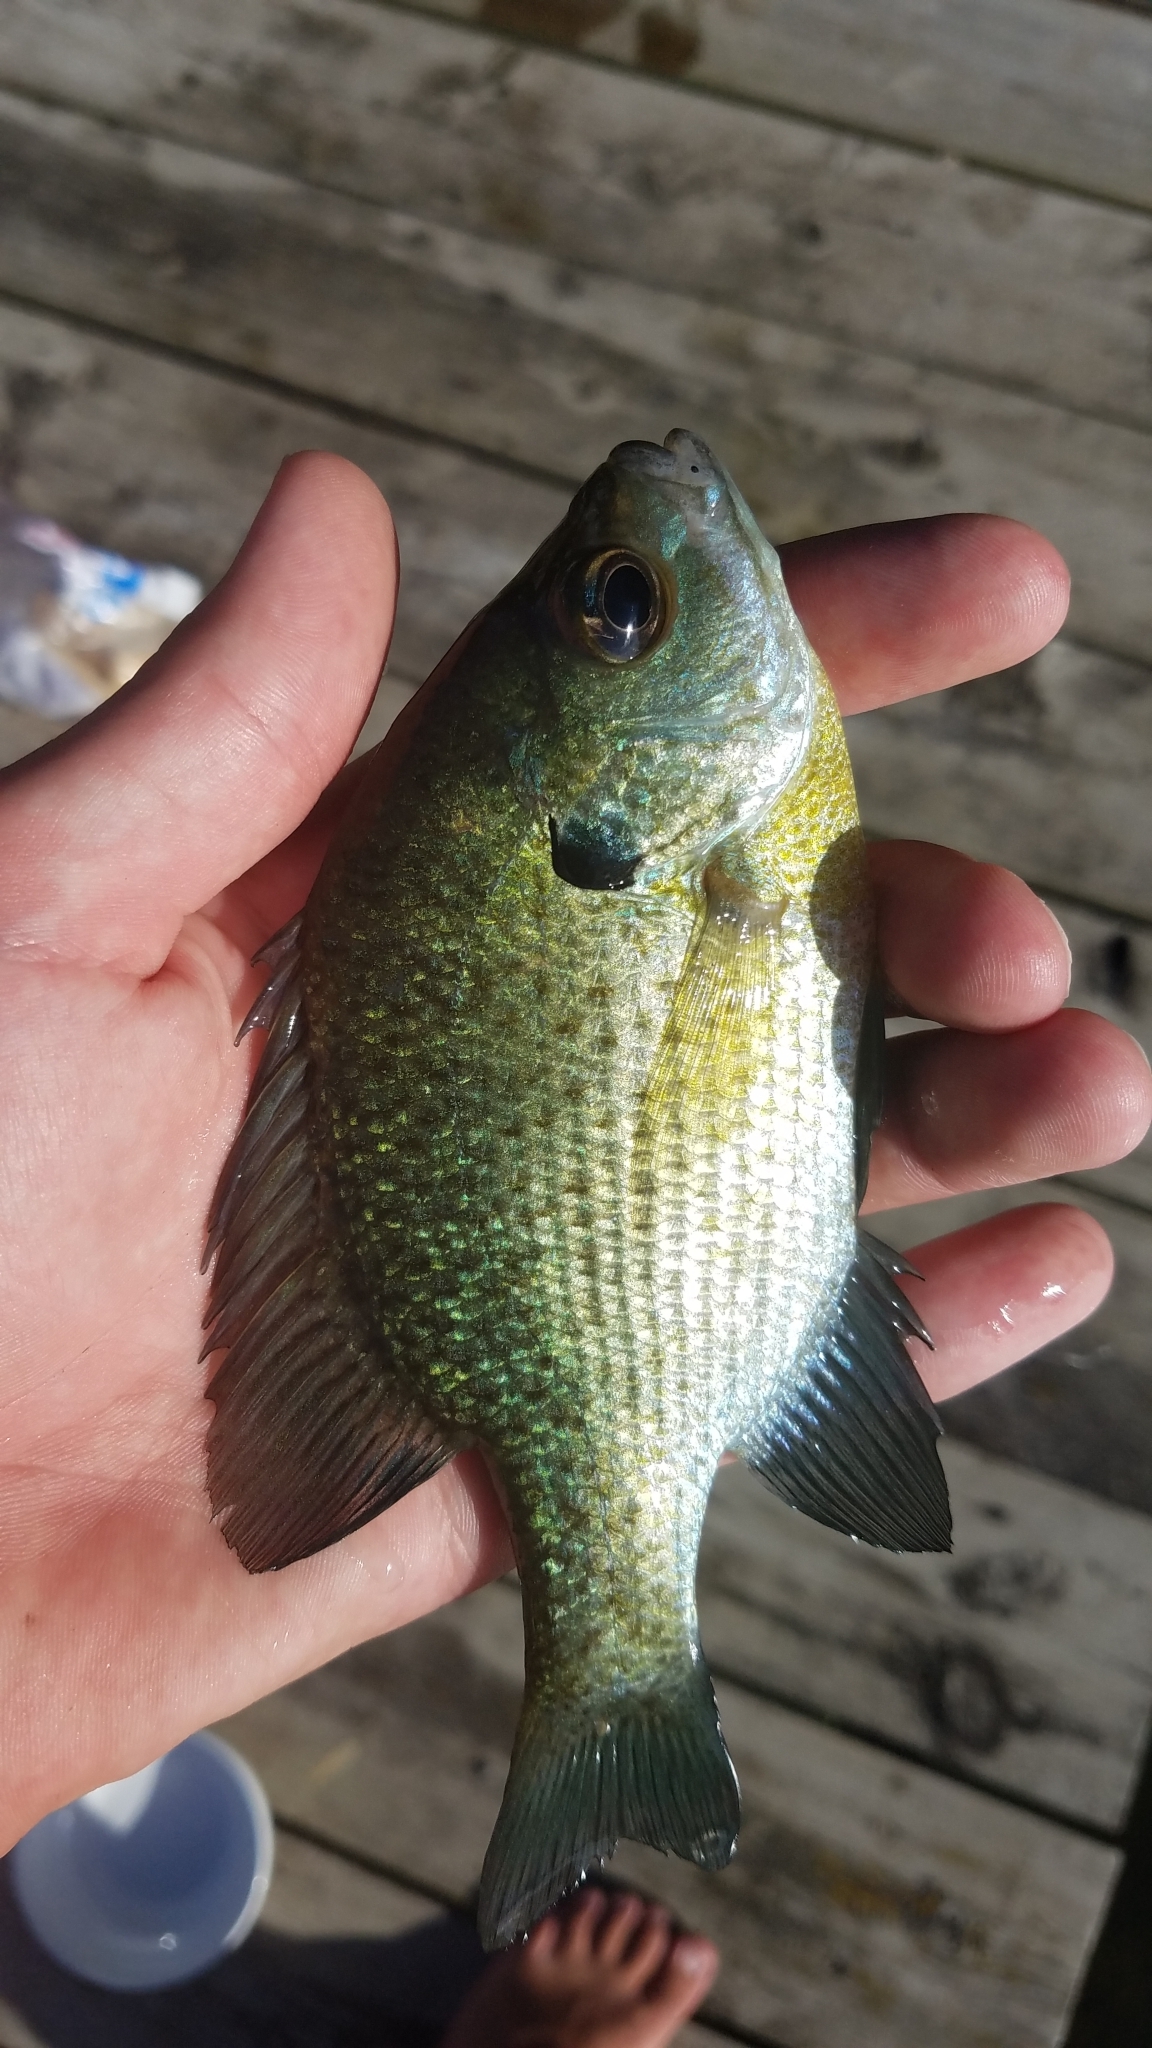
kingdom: Animalia
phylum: Chordata
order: Perciformes
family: Centrarchidae
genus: Lepomis
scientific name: Lepomis macrochirus
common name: Bluegill
